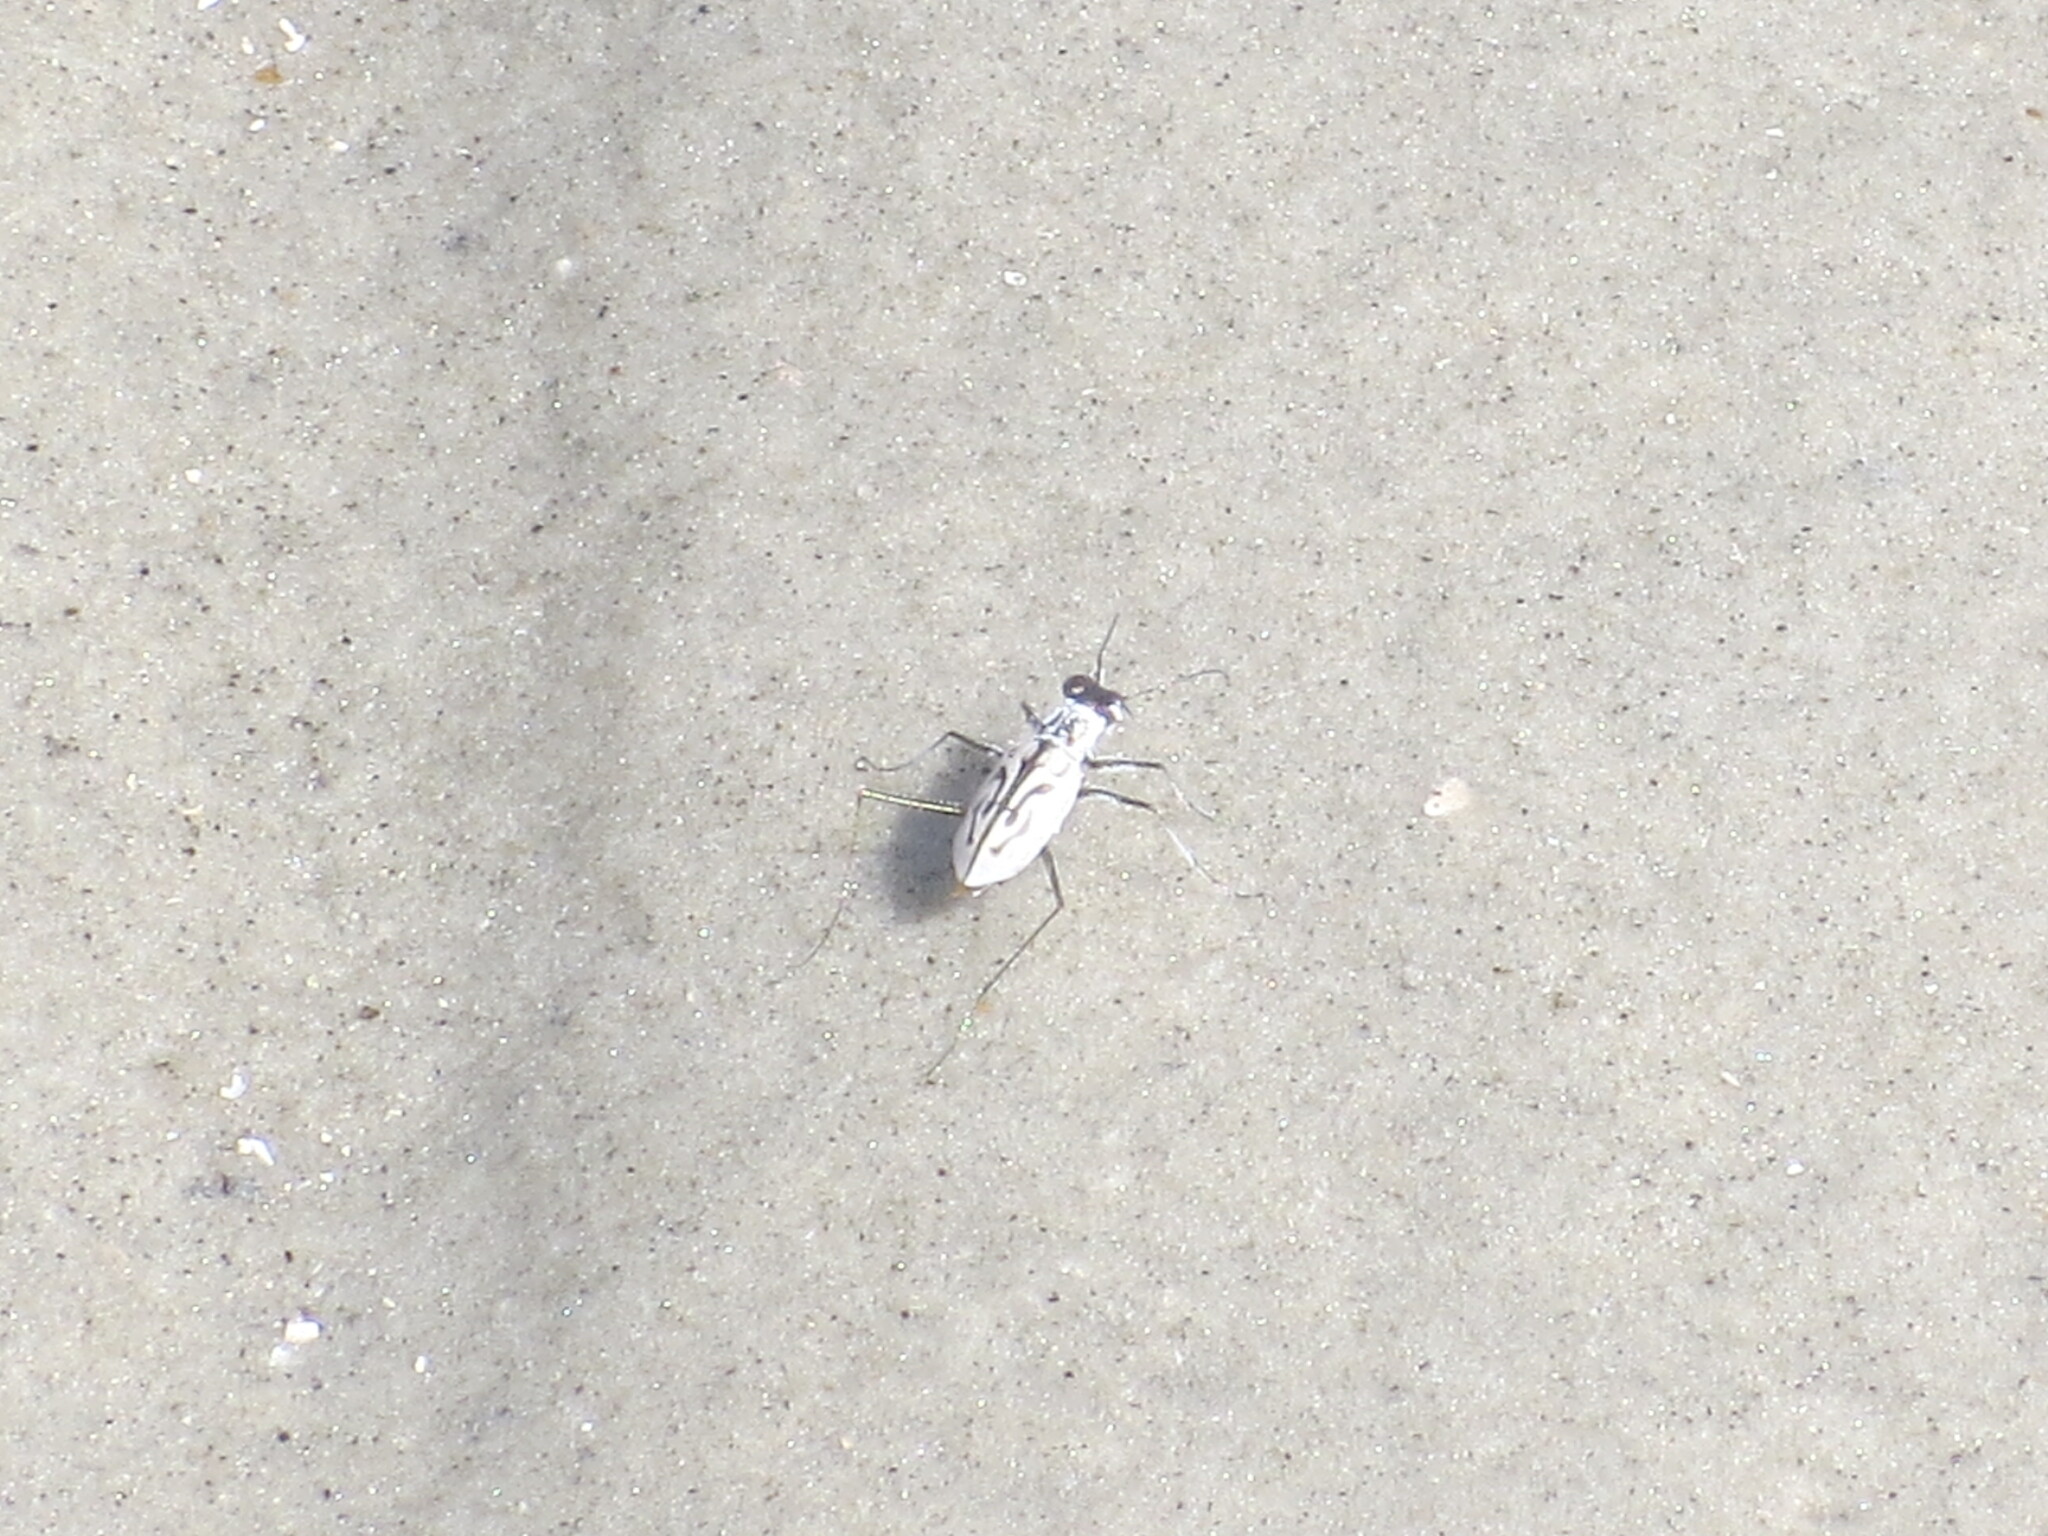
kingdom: Animalia
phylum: Arthropoda
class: Insecta
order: Coleoptera
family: Carabidae
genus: Habroscelimorpha
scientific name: Habroscelimorpha dorsalis
